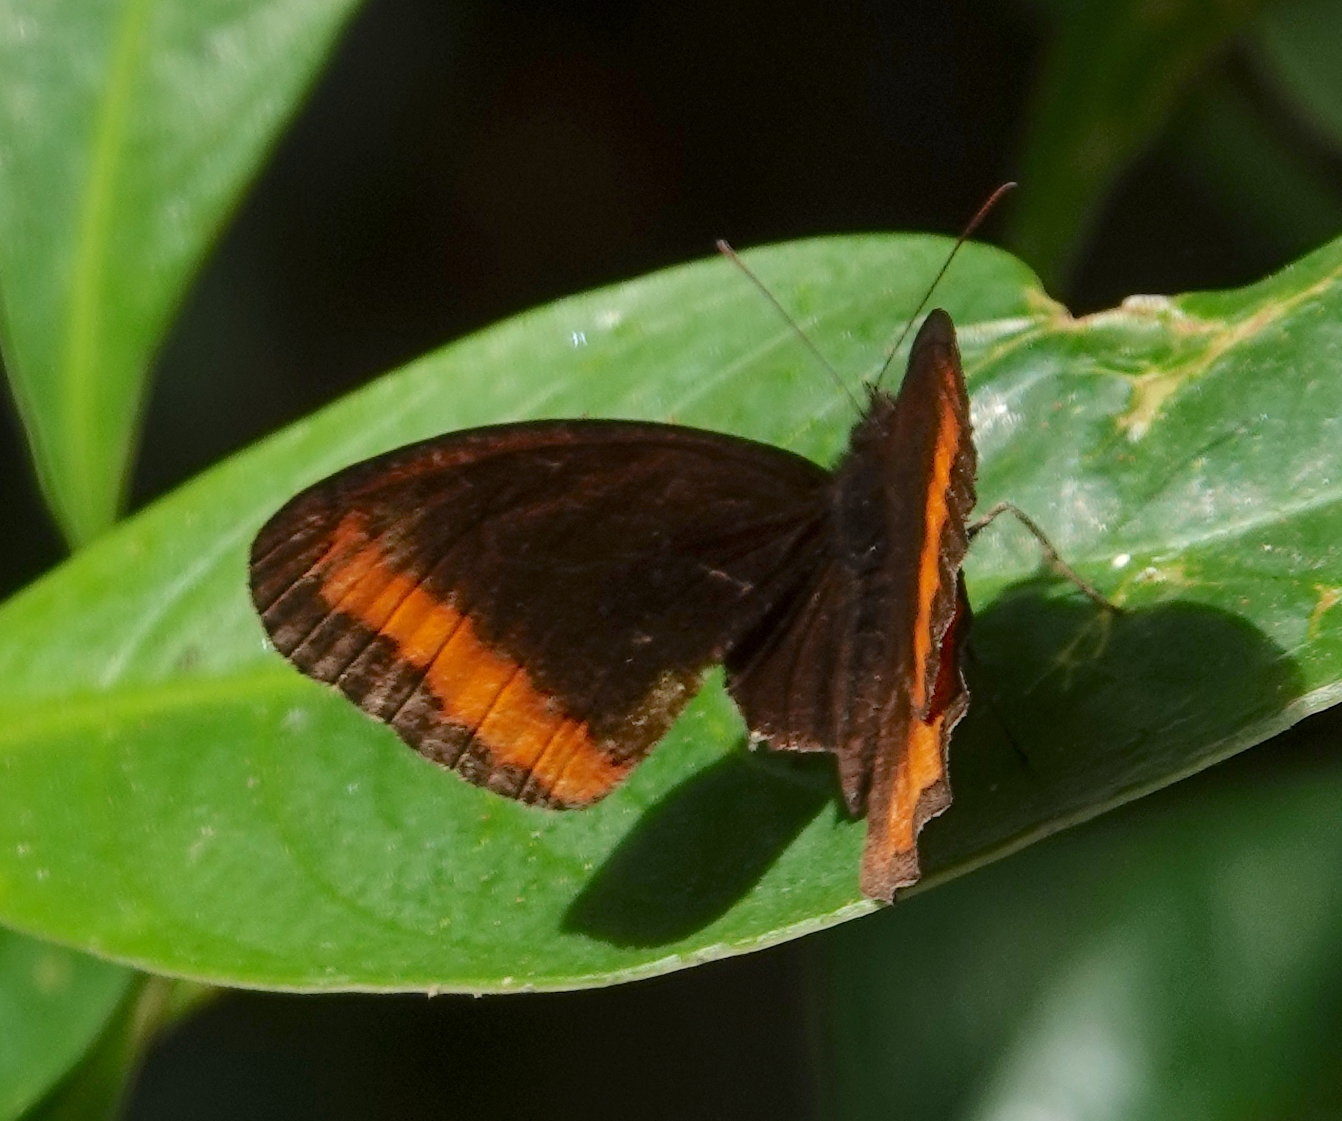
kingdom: Animalia
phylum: Arthropoda
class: Insecta
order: Lepidoptera
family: Nymphalidae
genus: Pedaliodes
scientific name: Pedaliodes
